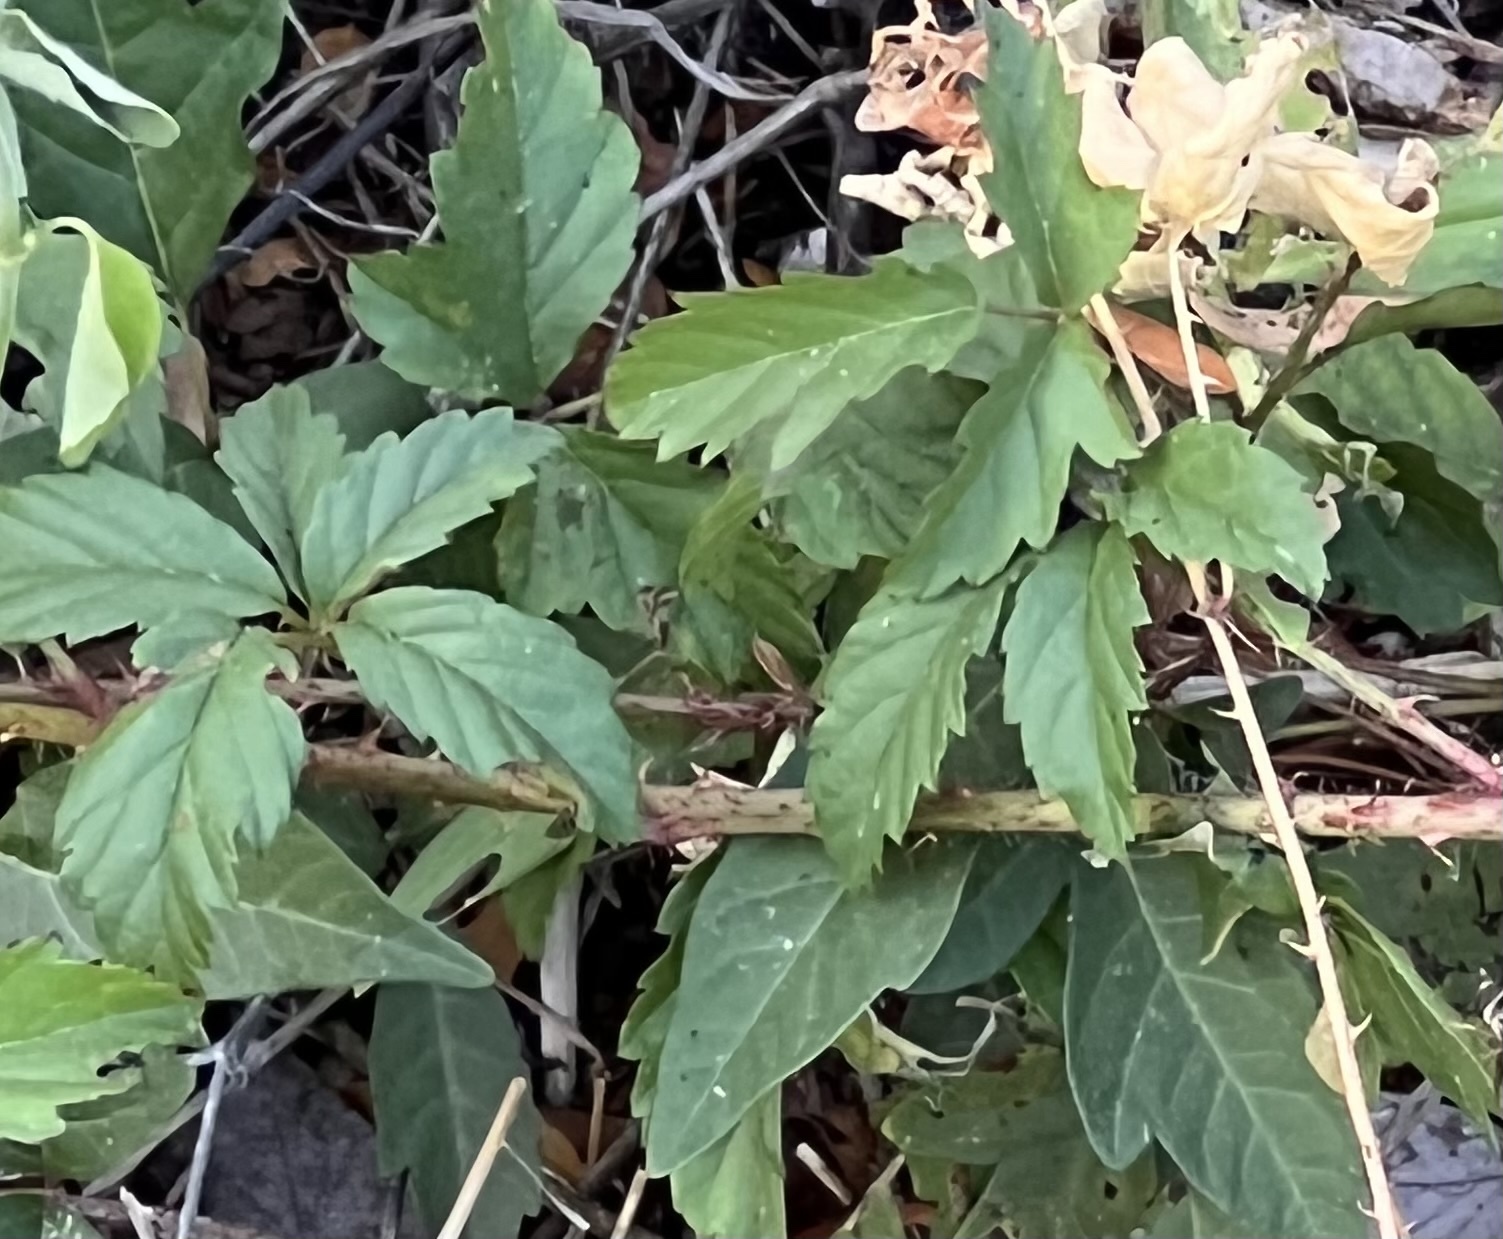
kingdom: Plantae
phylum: Tracheophyta
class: Magnoliopsida
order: Rosales
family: Rosaceae
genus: Rubus
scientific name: Rubus trivialis
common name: Southern dewberry
